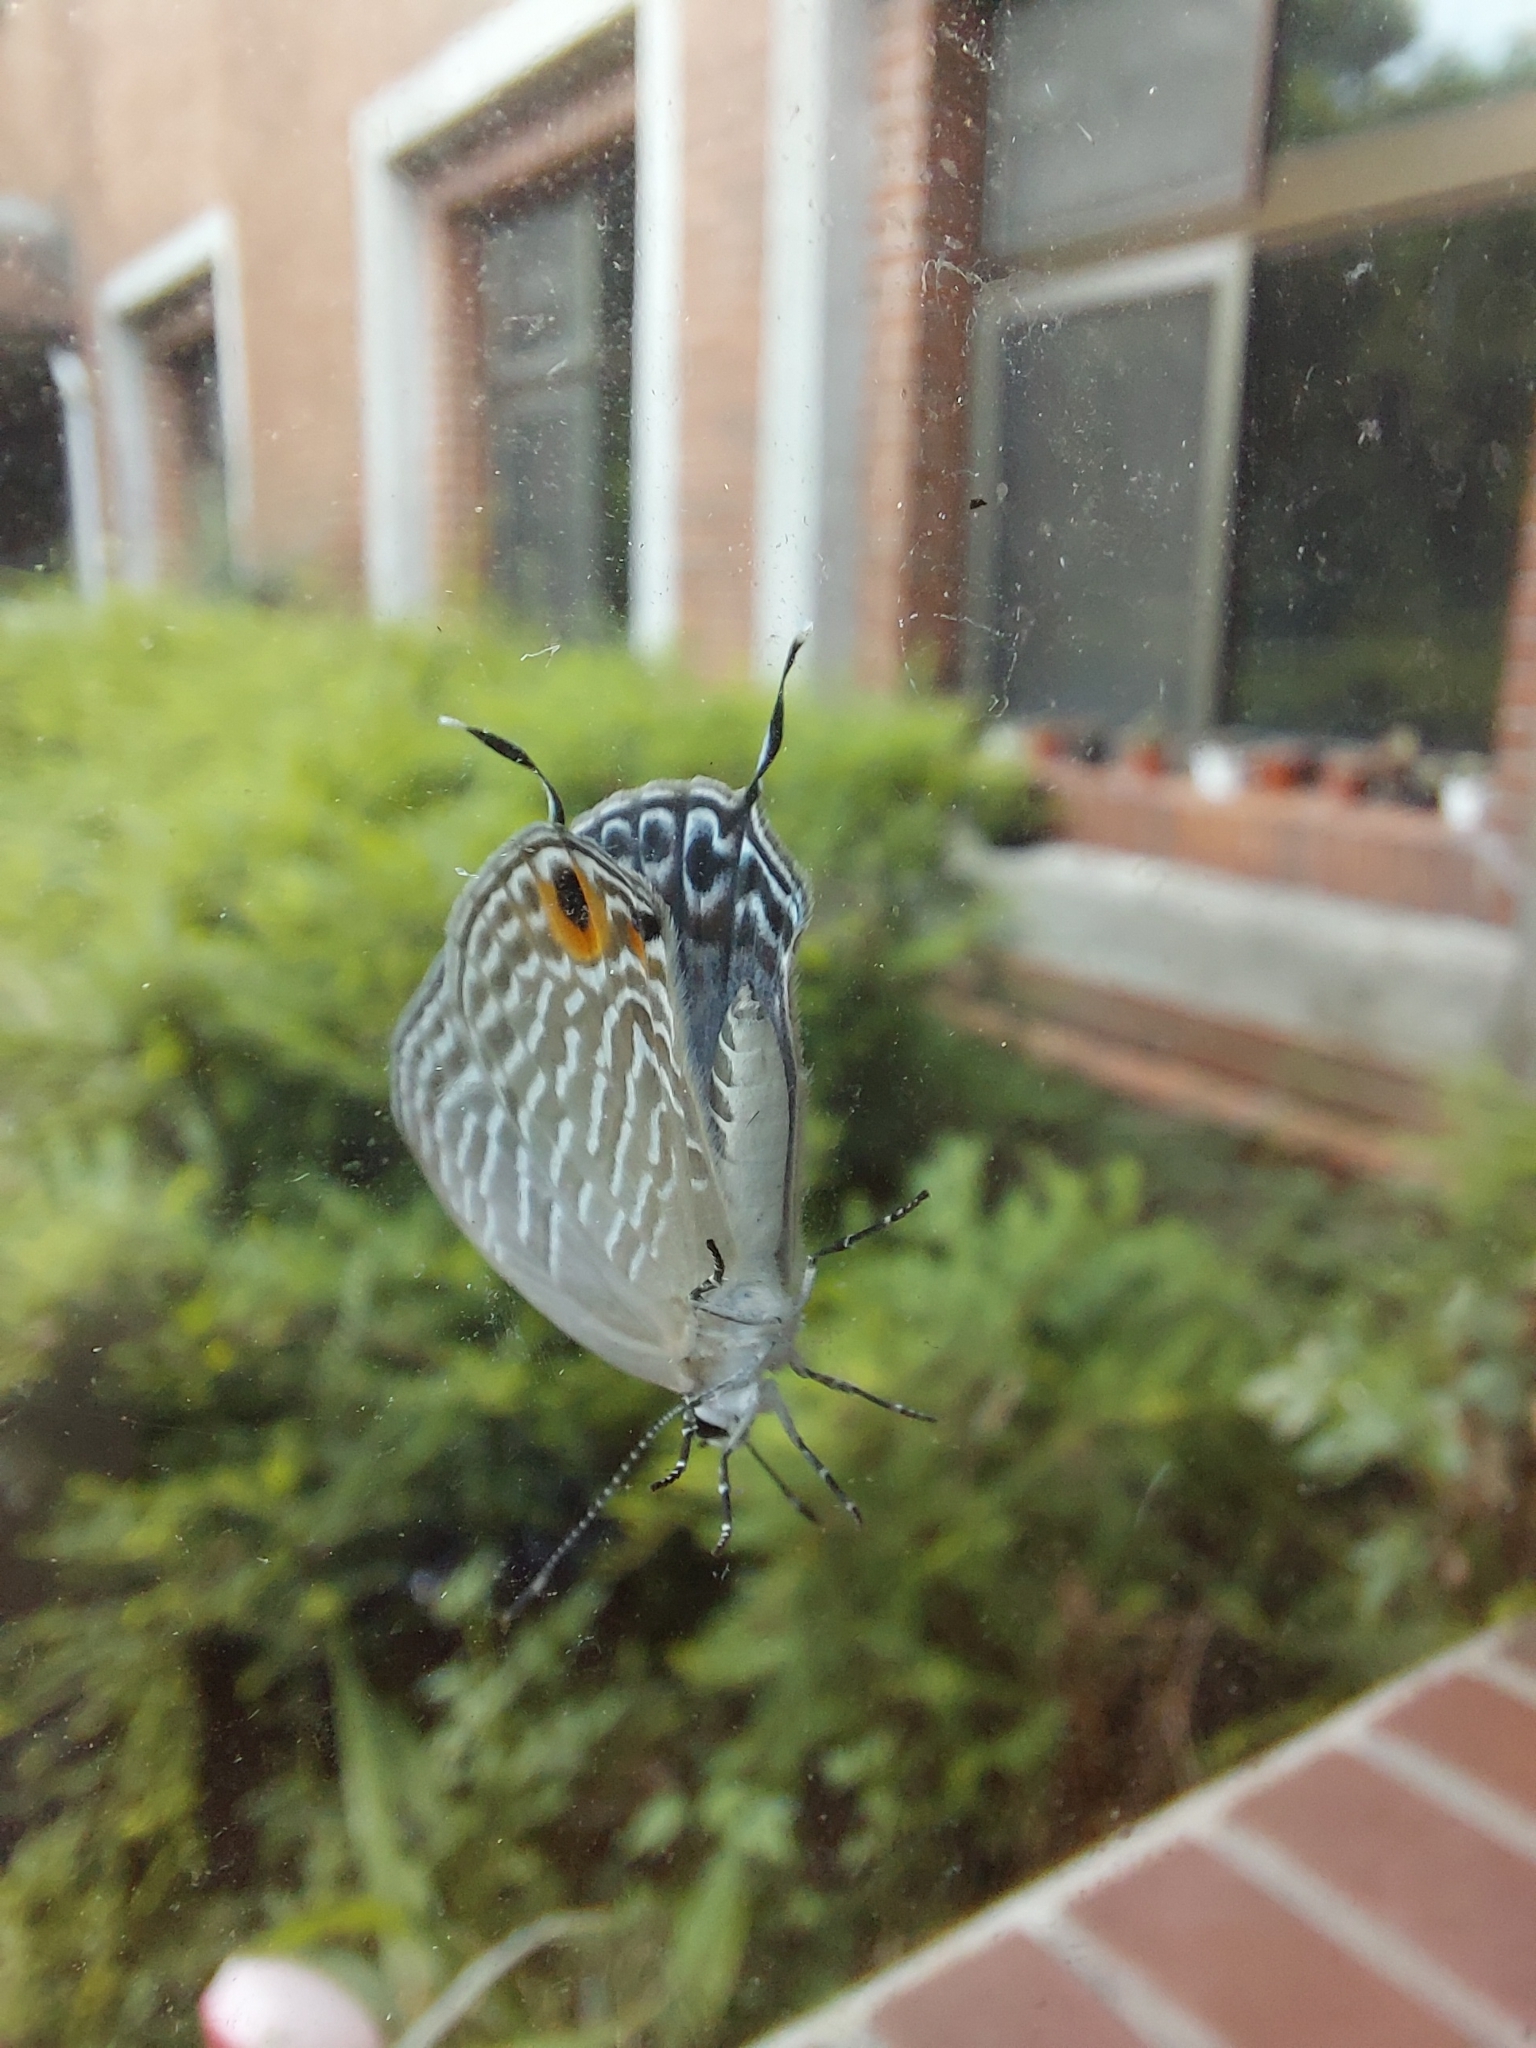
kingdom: Animalia
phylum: Arthropoda
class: Insecta
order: Lepidoptera
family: Lycaenidae
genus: Jamides
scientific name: Jamides alecto
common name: Metallic cerulean
